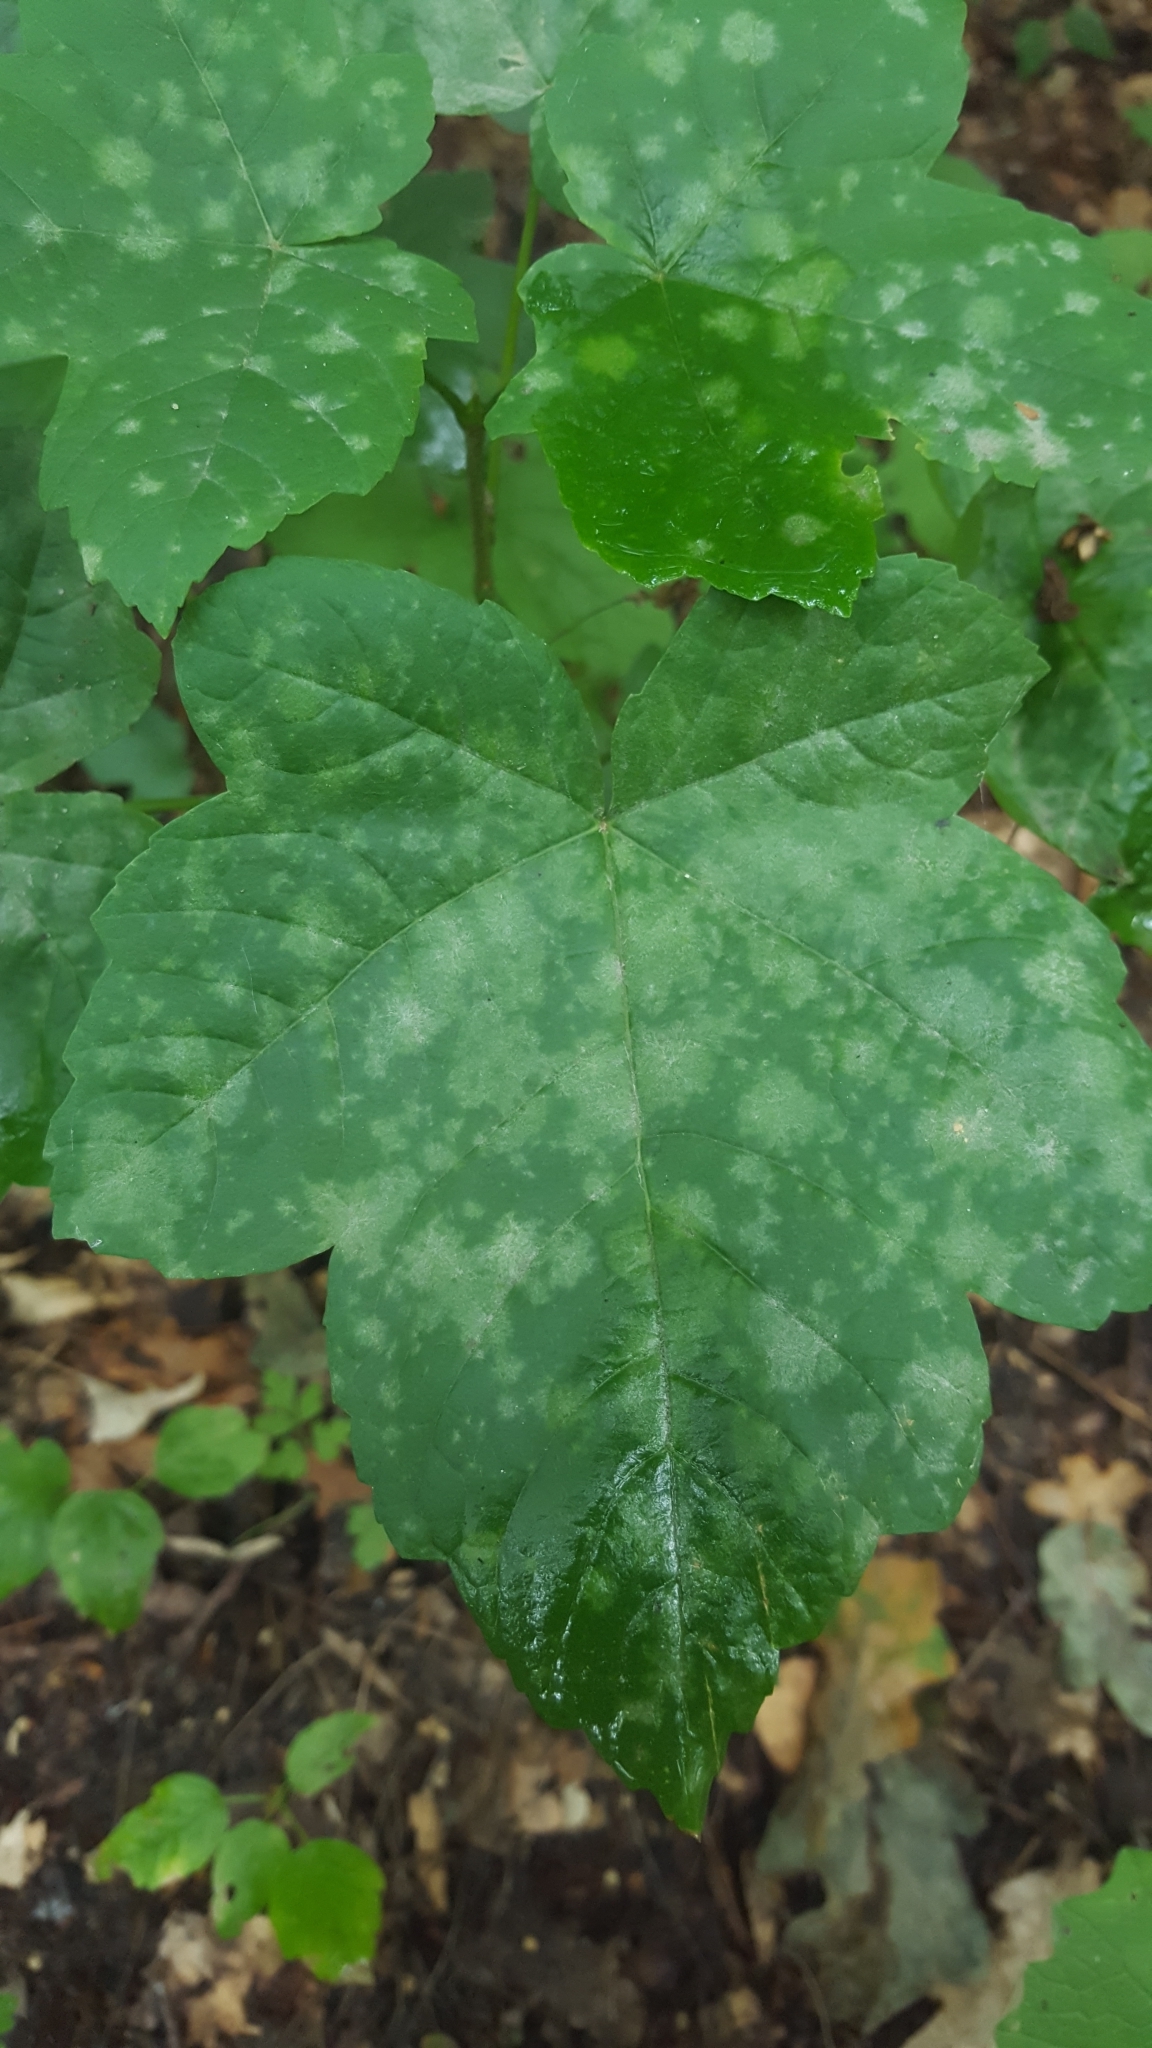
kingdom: Fungi
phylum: Ascomycota
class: Leotiomycetes
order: Helotiales
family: Erysiphaceae
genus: Sawadaea
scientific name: Sawadaea bicornis
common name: Maple mildew
